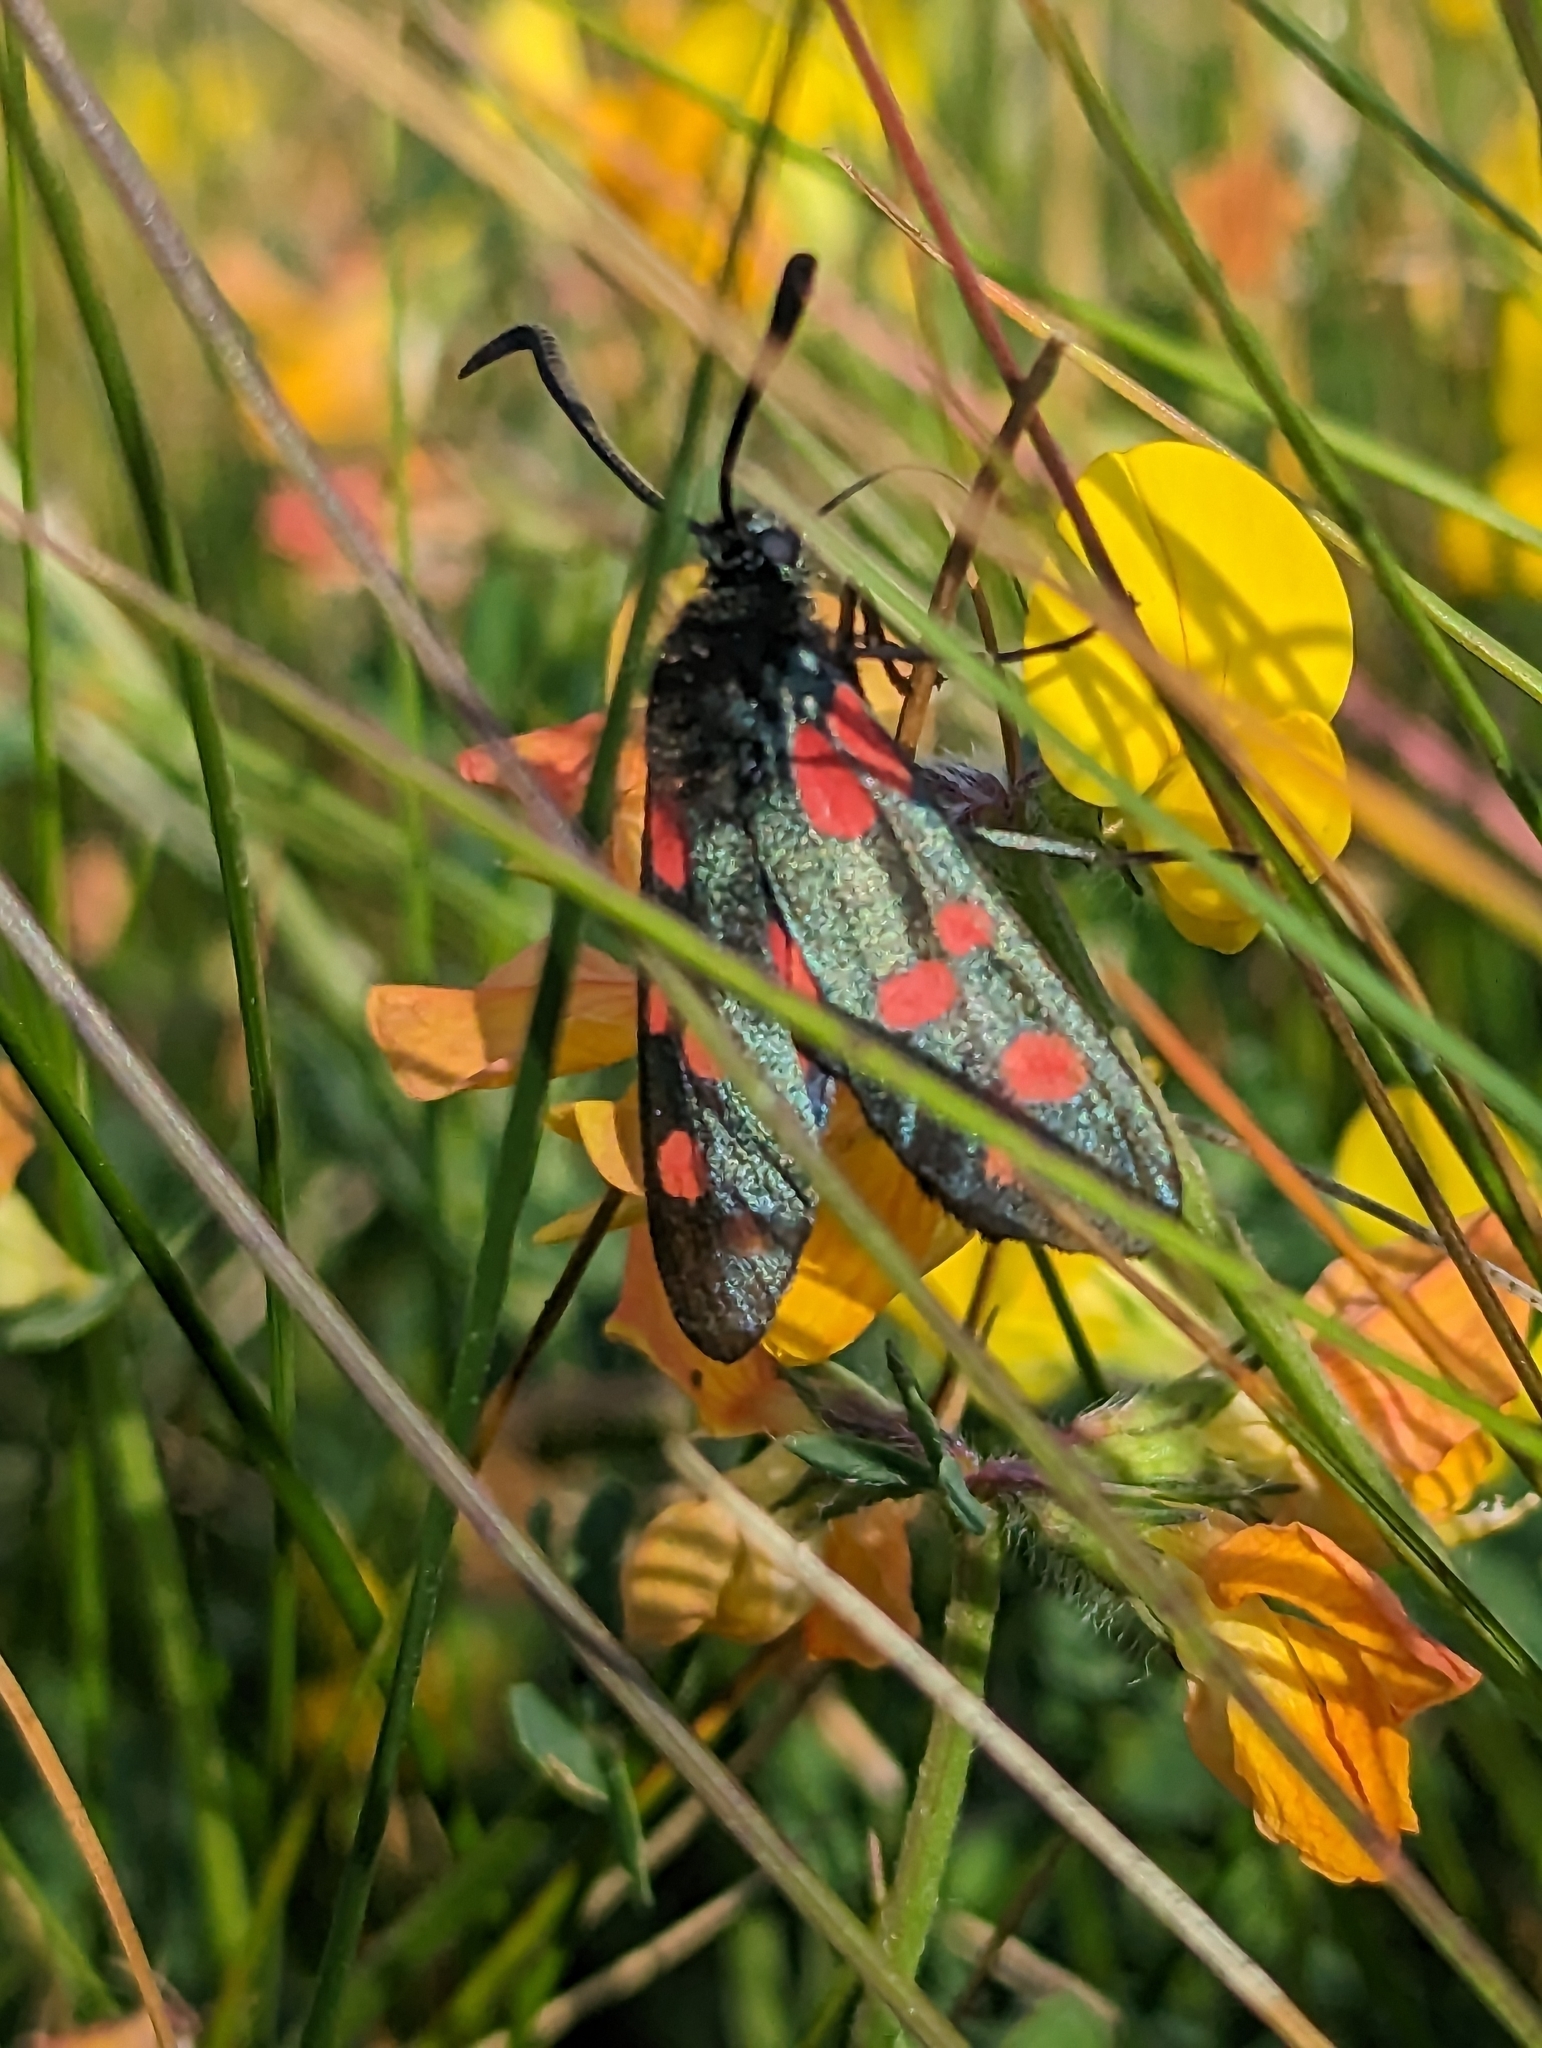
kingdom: Animalia
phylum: Arthropoda
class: Insecta
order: Lepidoptera
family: Zygaenidae
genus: Zygaena
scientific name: Zygaena lonicerae
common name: Narrow-bordered five-spot burnet
